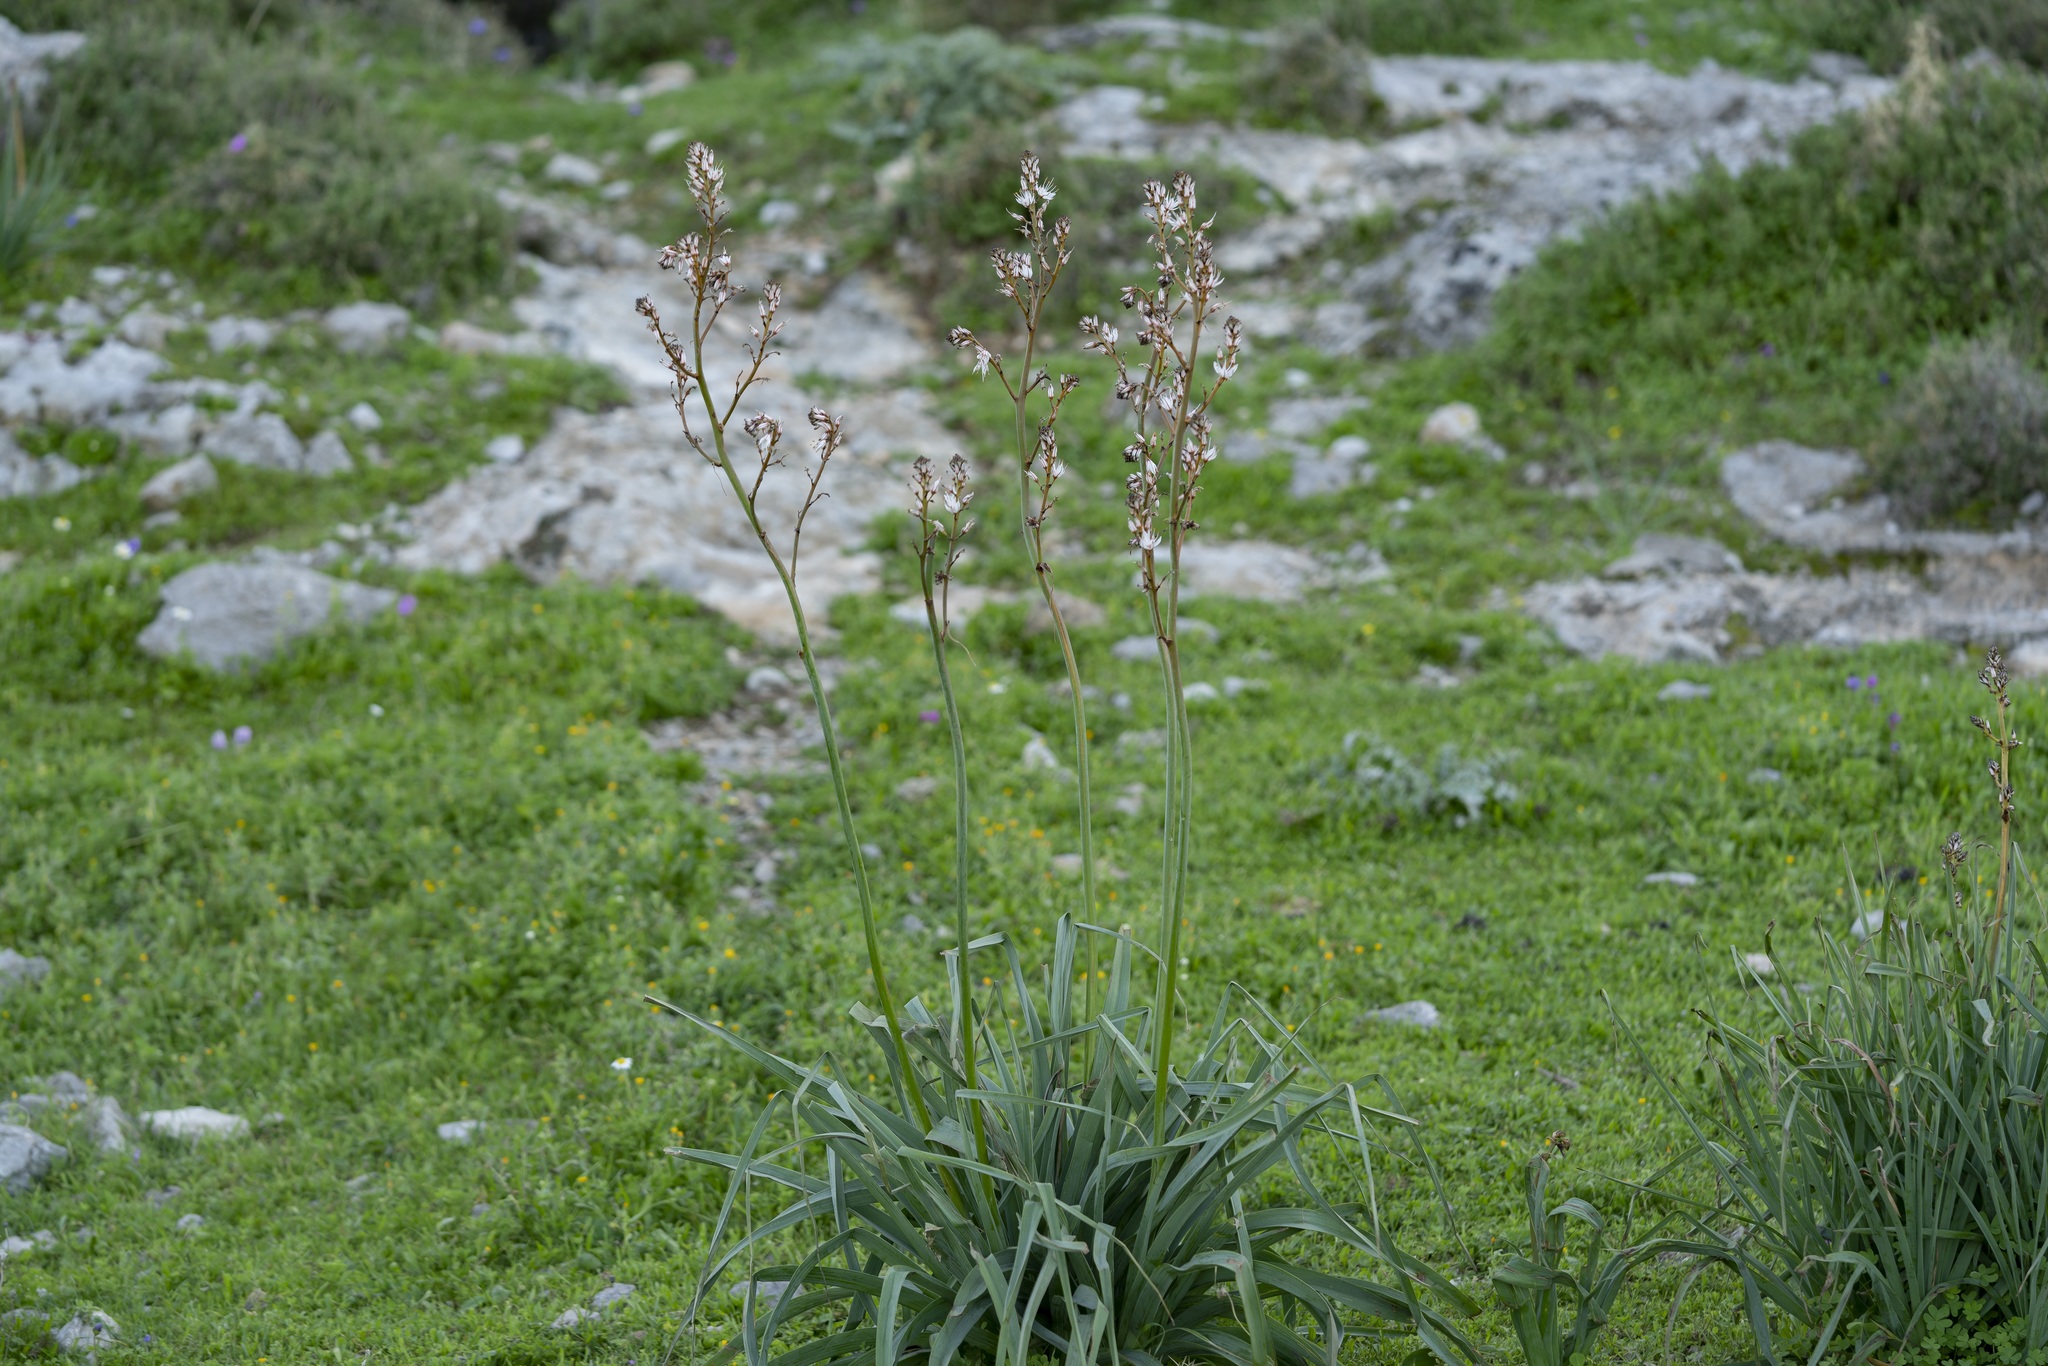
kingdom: Plantae
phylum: Tracheophyta
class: Liliopsida
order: Asparagales
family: Asphodelaceae
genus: Asphodelus
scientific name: Asphodelus ramosus
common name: Silverrod
